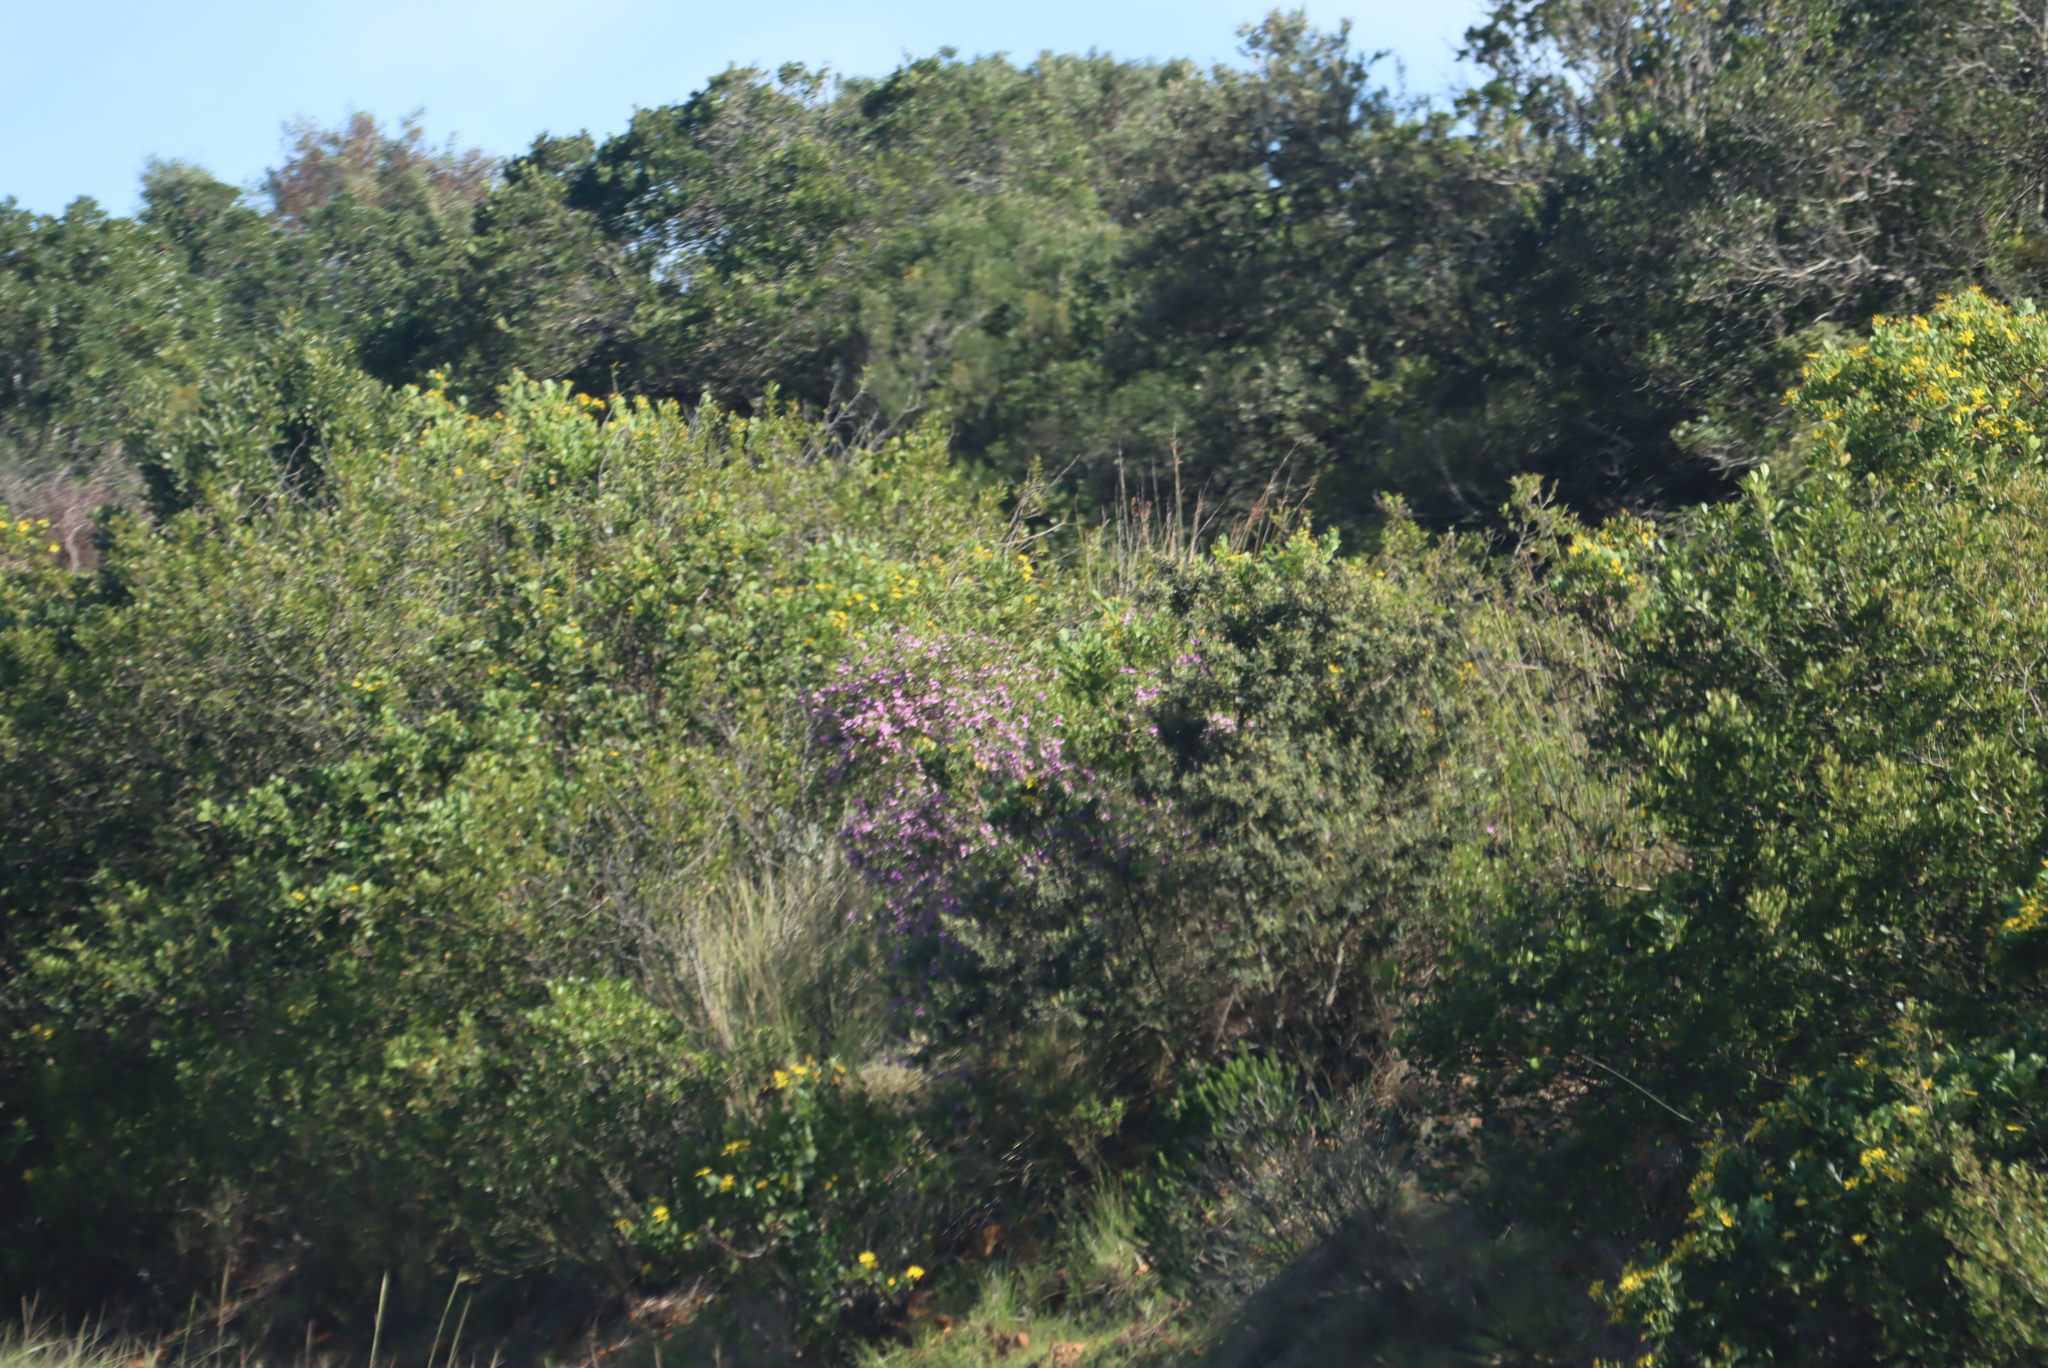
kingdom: Plantae
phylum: Tracheophyta
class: Magnoliopsida
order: Fabales
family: Polygalaceae
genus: Polygala
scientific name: Polygala myrtifolia
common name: Myrtle-leaf milkwort
